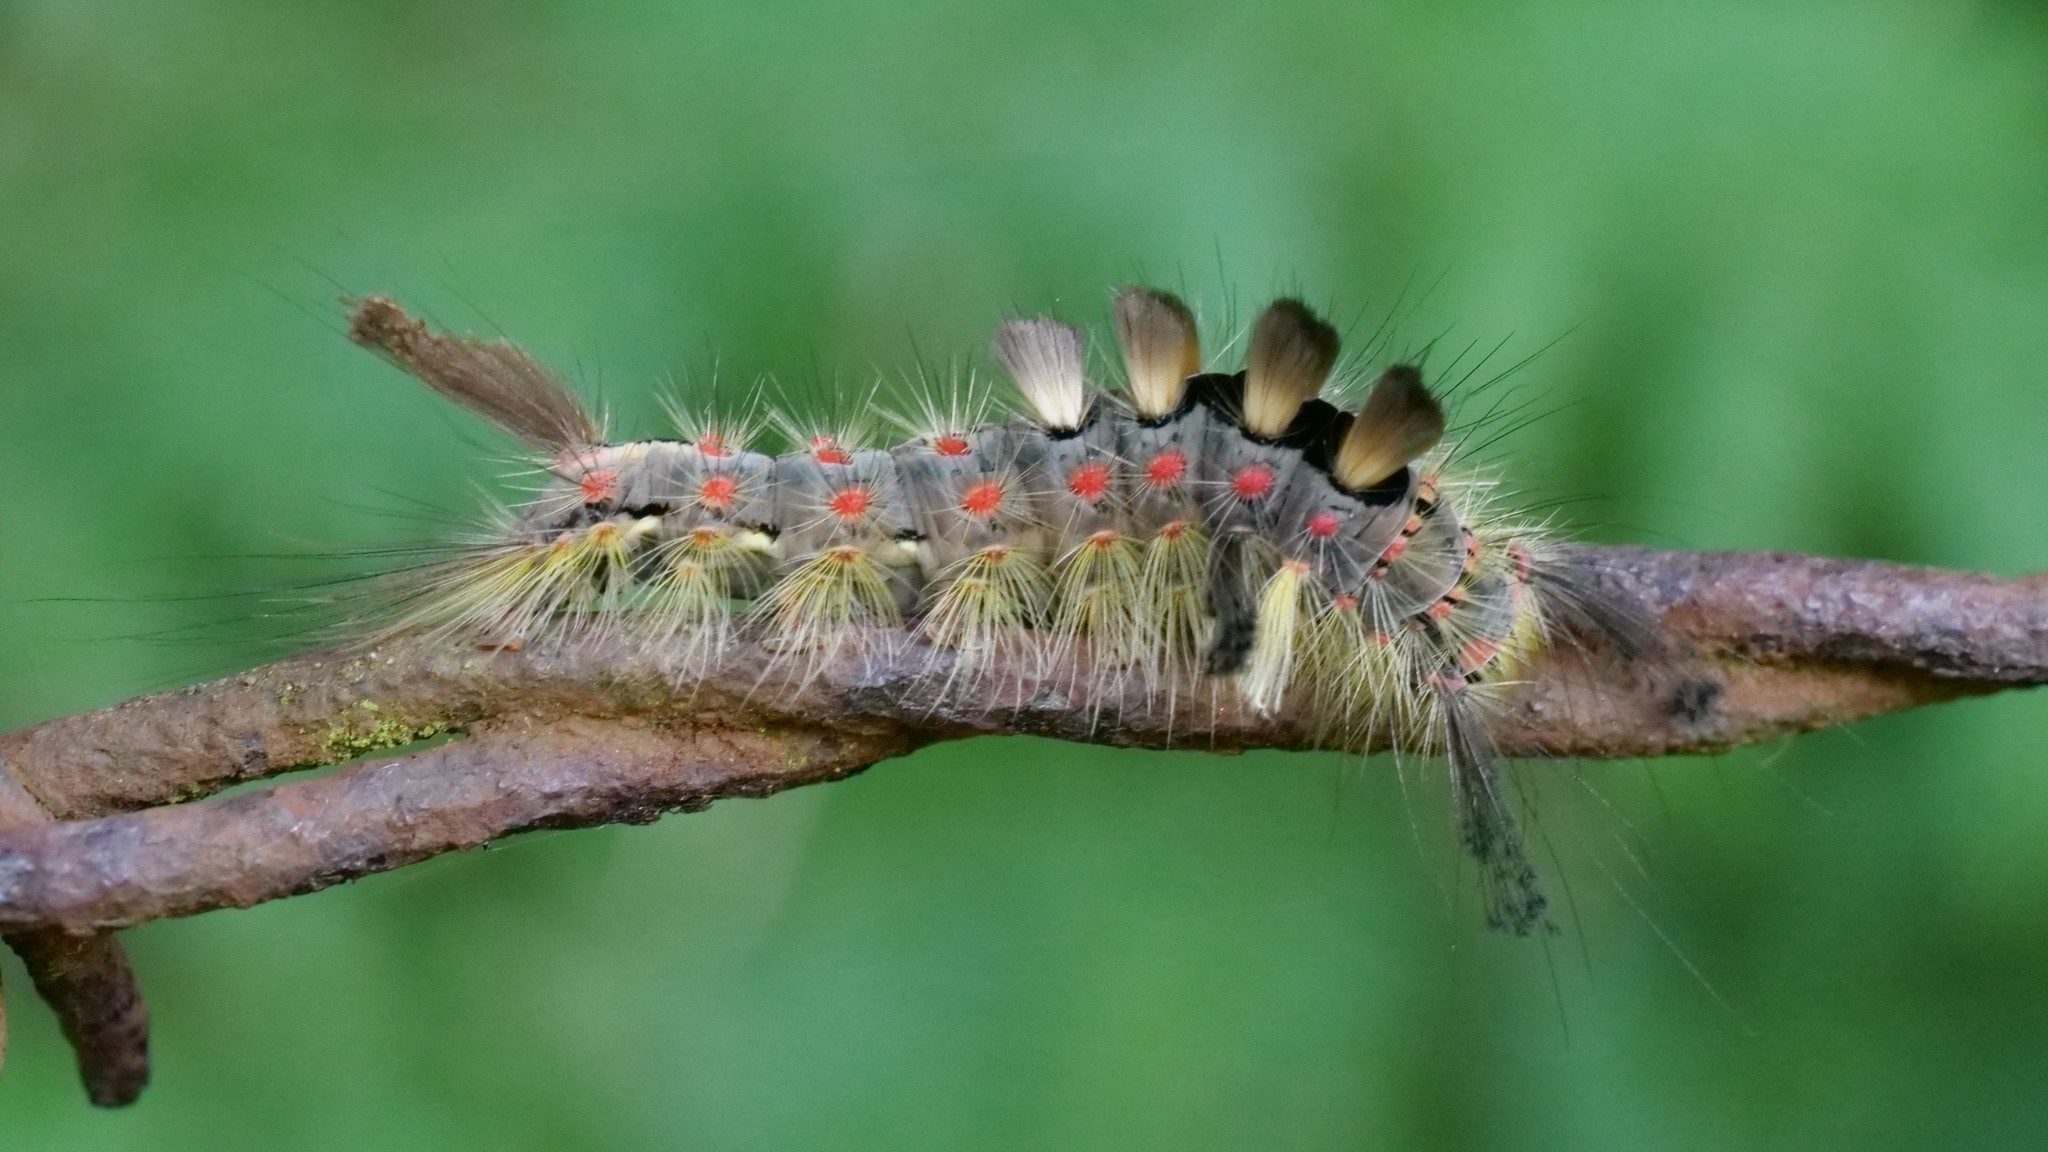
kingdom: Animalia
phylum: Arthropoda
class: Insecta
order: Lepidoptera
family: Erebidae
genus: Orgyia
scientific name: Orgyia antiqua
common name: Vapourer
